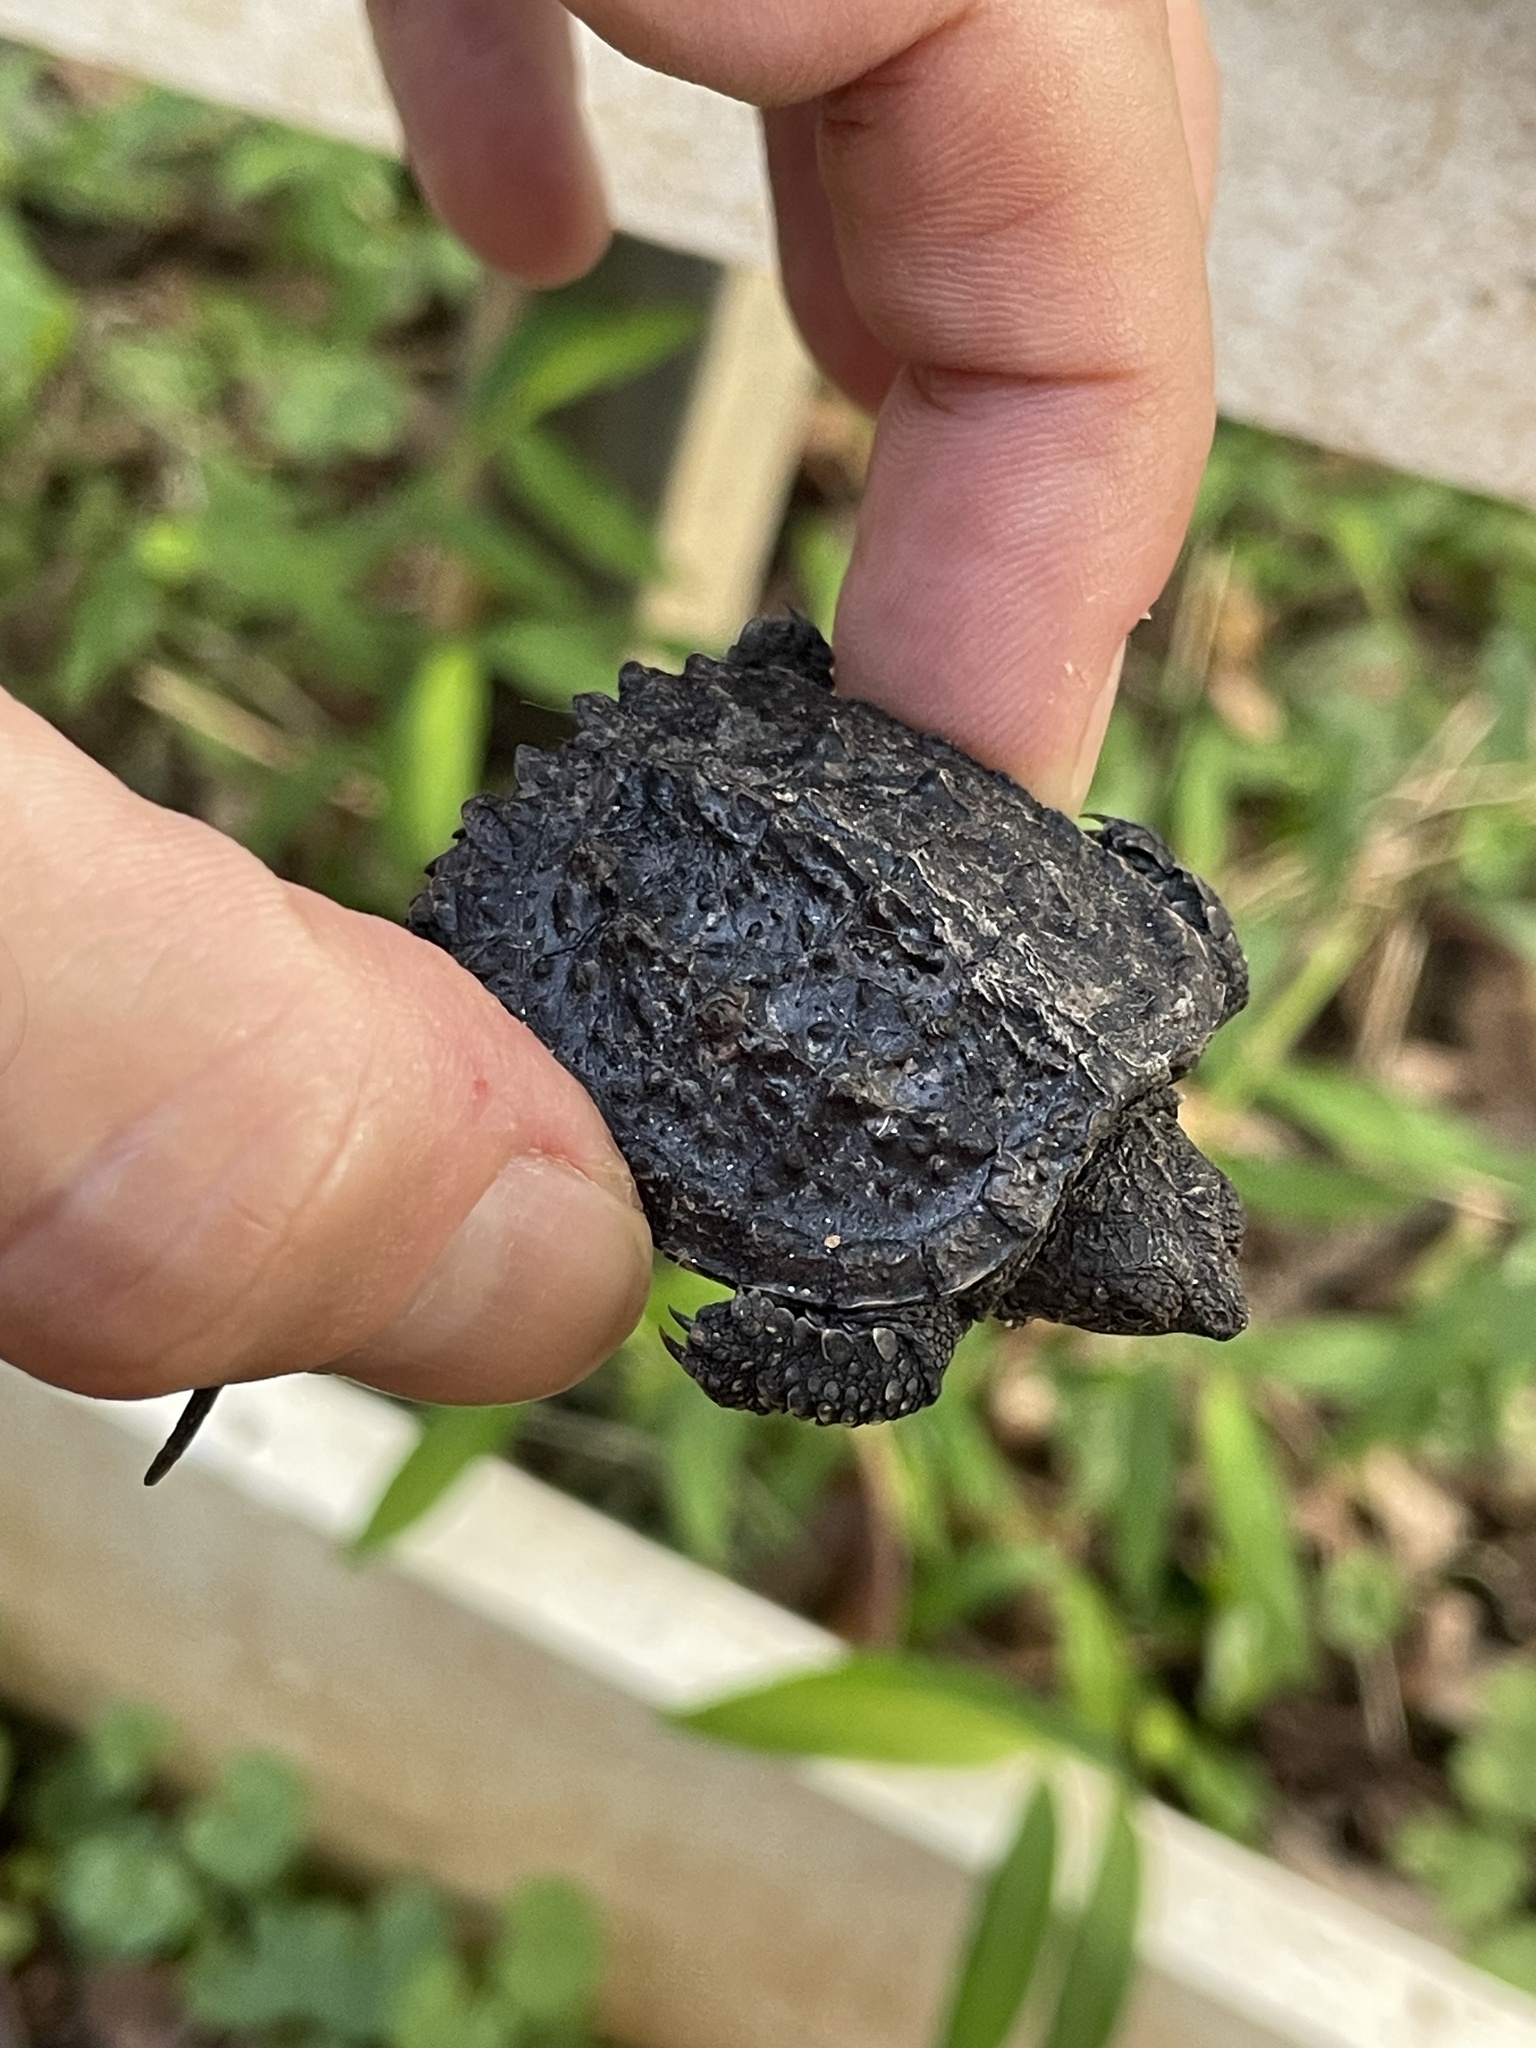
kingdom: Animalia
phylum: Chordata
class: Testudines
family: Chelydridae
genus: Chelydra
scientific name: Chelydra serpentina
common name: Common snapping turtle
